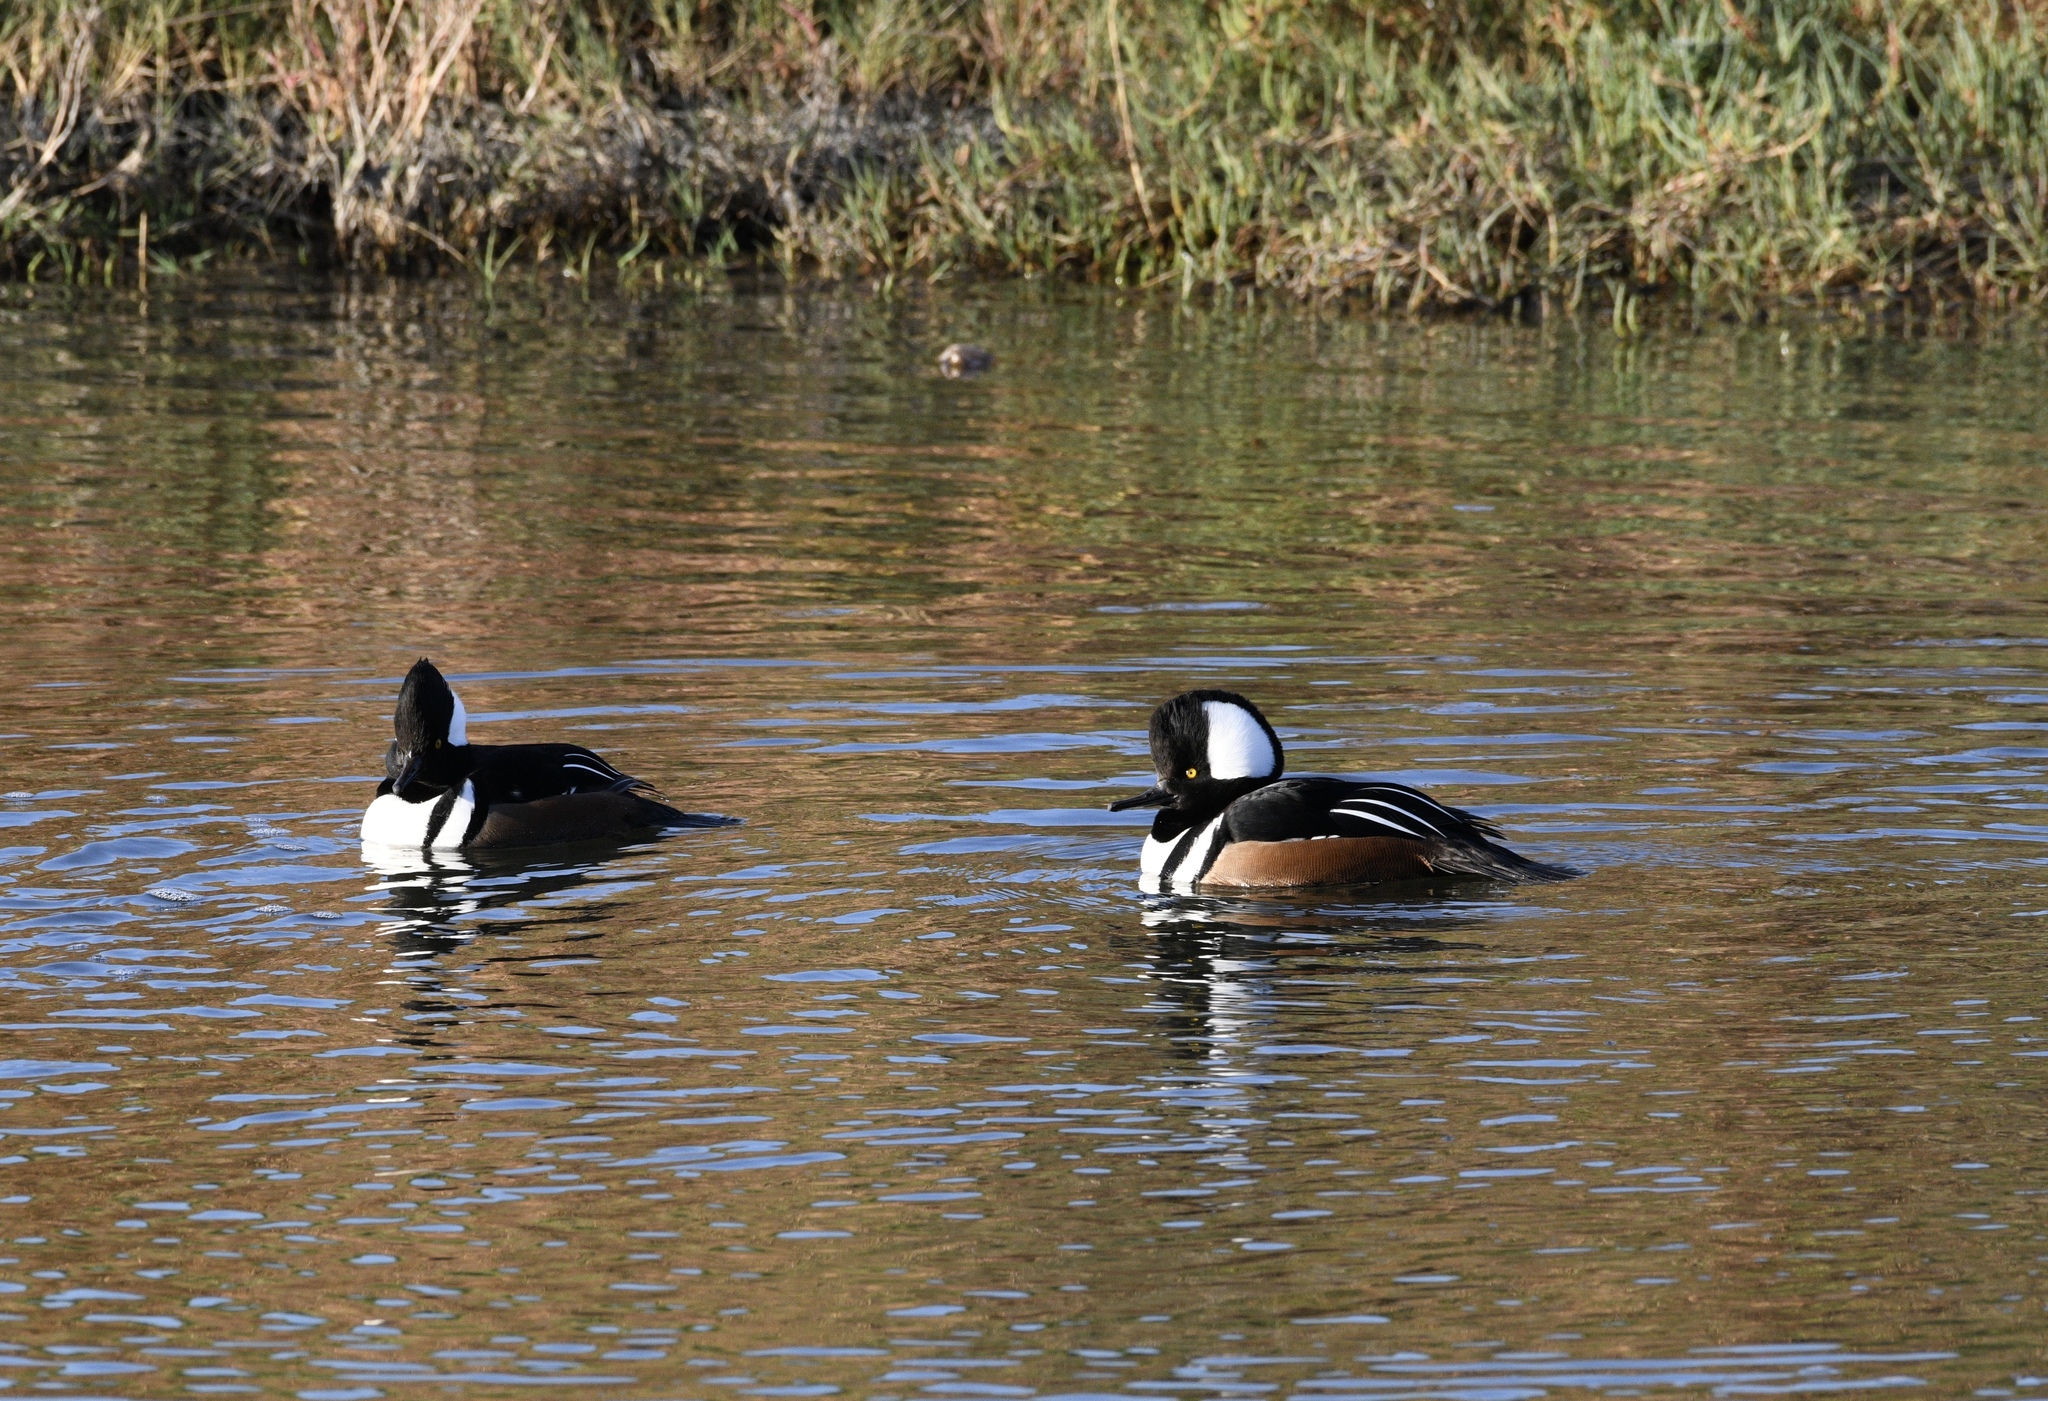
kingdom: Animalia
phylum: Chordata
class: Aves
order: Anseriformes
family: Anatidae
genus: Lophodytes
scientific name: Lophodytes cucullatus
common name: Hooded merganser
